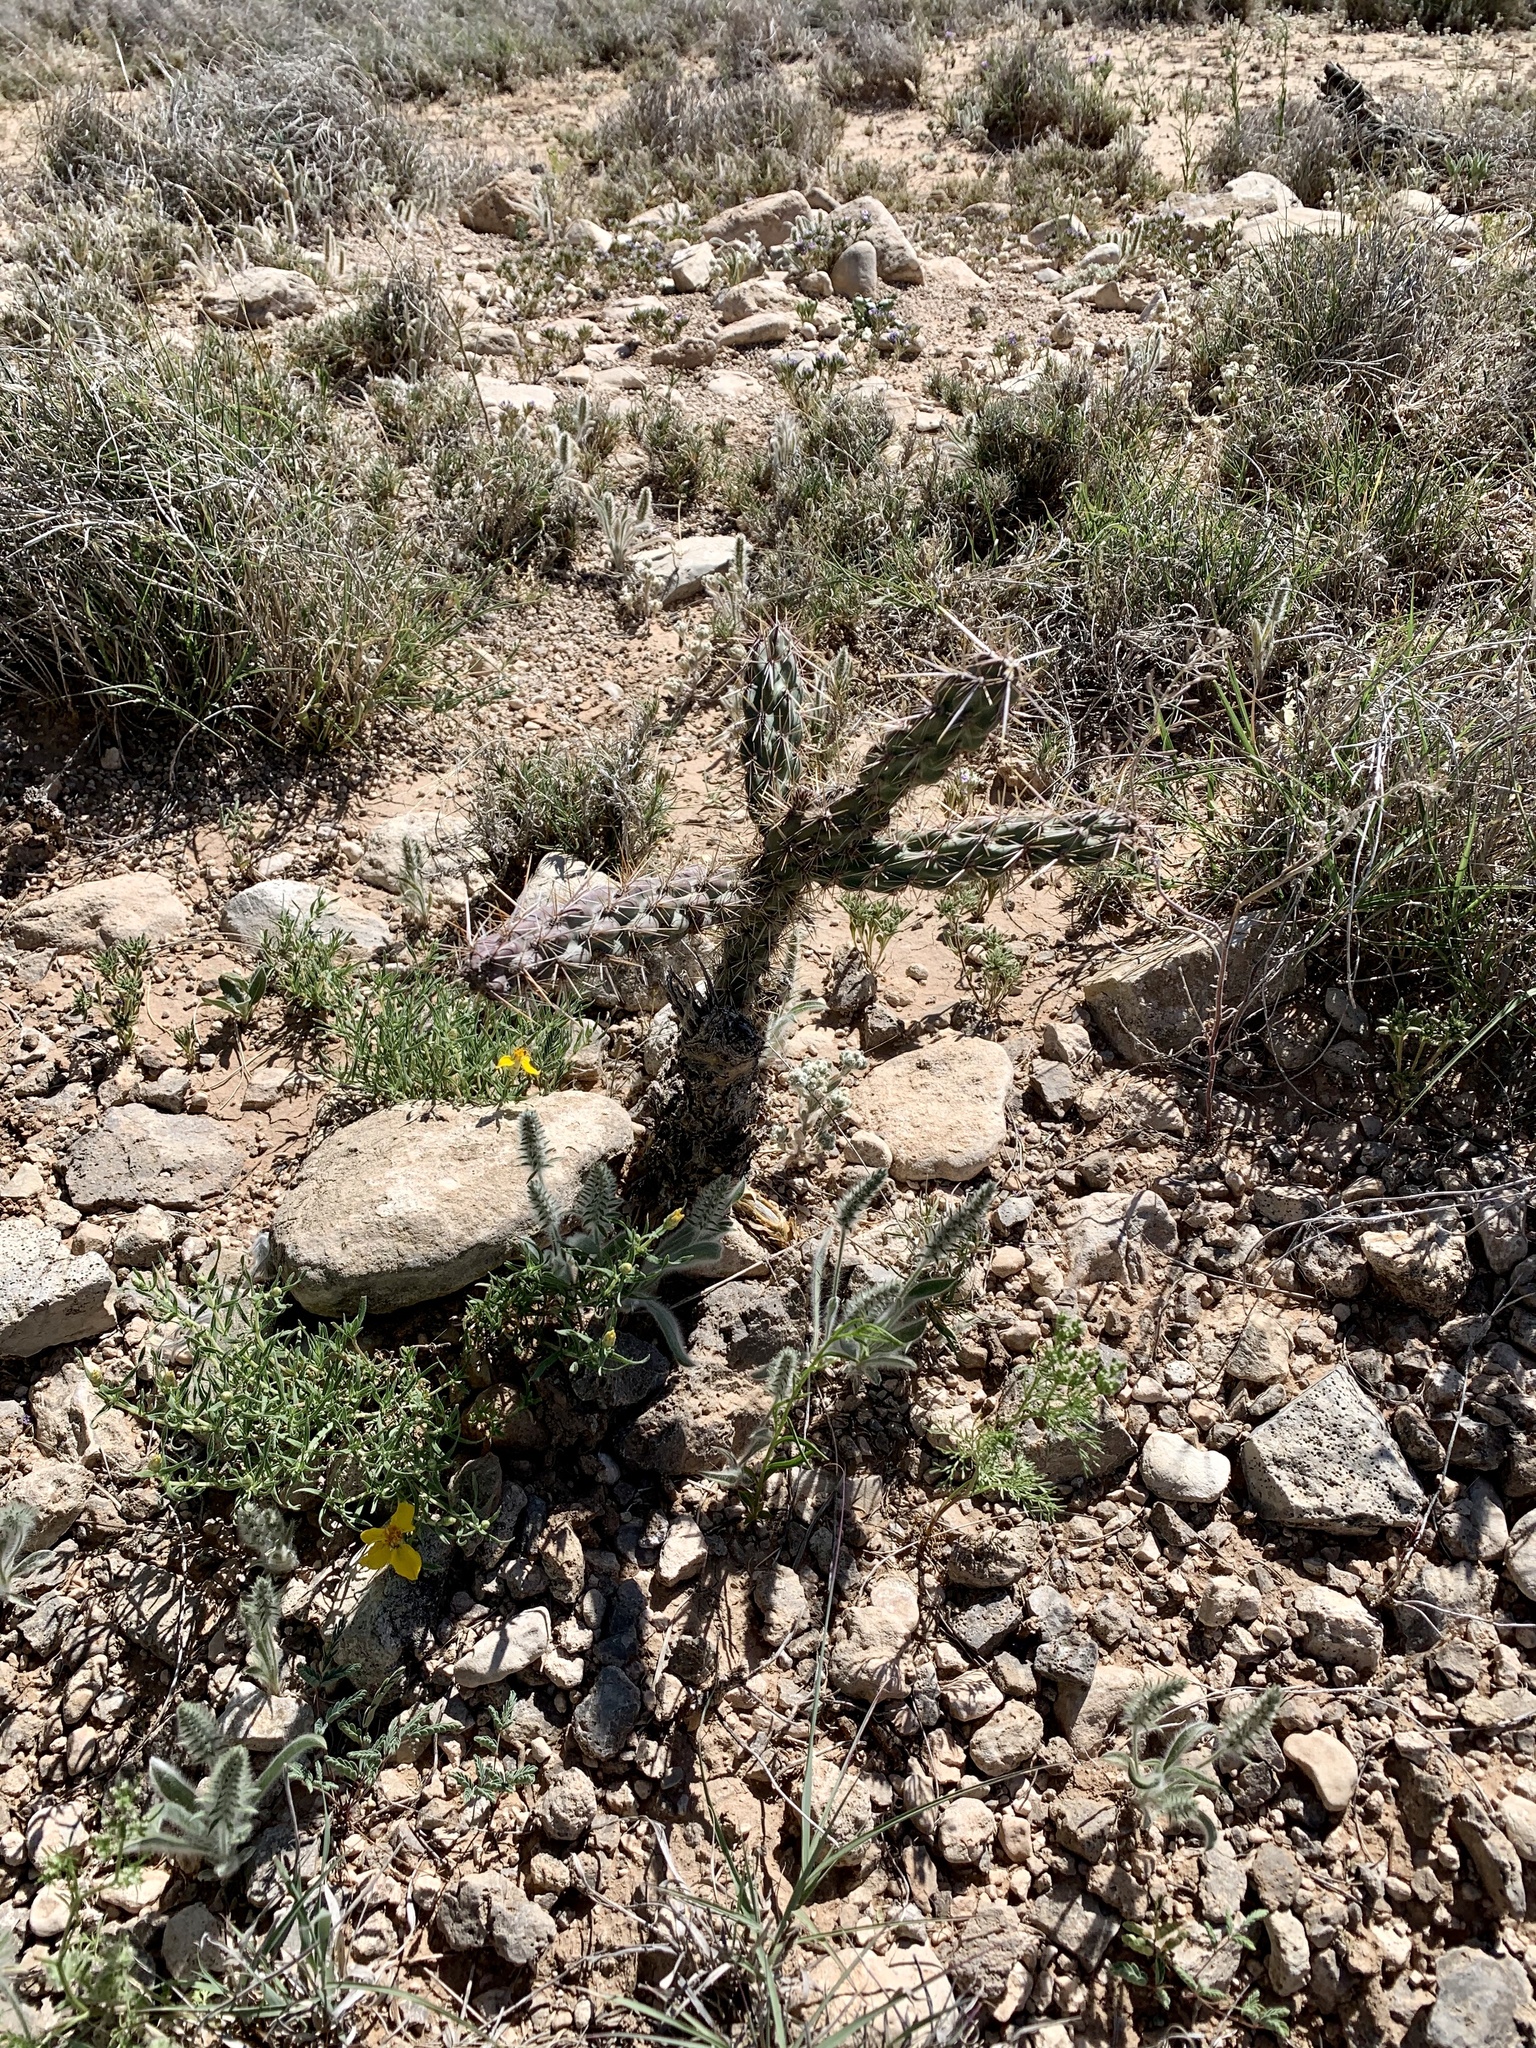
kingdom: Plantae
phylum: Tracheophyta
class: Magnoliopsida
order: Caryophyllales
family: Cactaceae
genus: Cylindropuntia
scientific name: Cylindropuntia imbricata
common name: Candelabrum cactus
